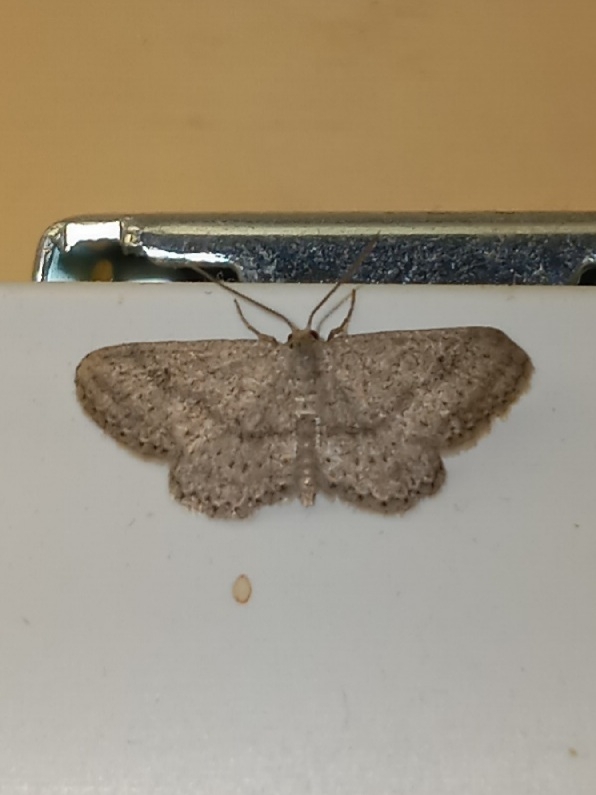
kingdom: Animalia
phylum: Arthropoda
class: Insecta
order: Lepidoptera
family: Geometridae
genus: Lobocleta
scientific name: Lobocleta ossularia
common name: Drab brown wave
